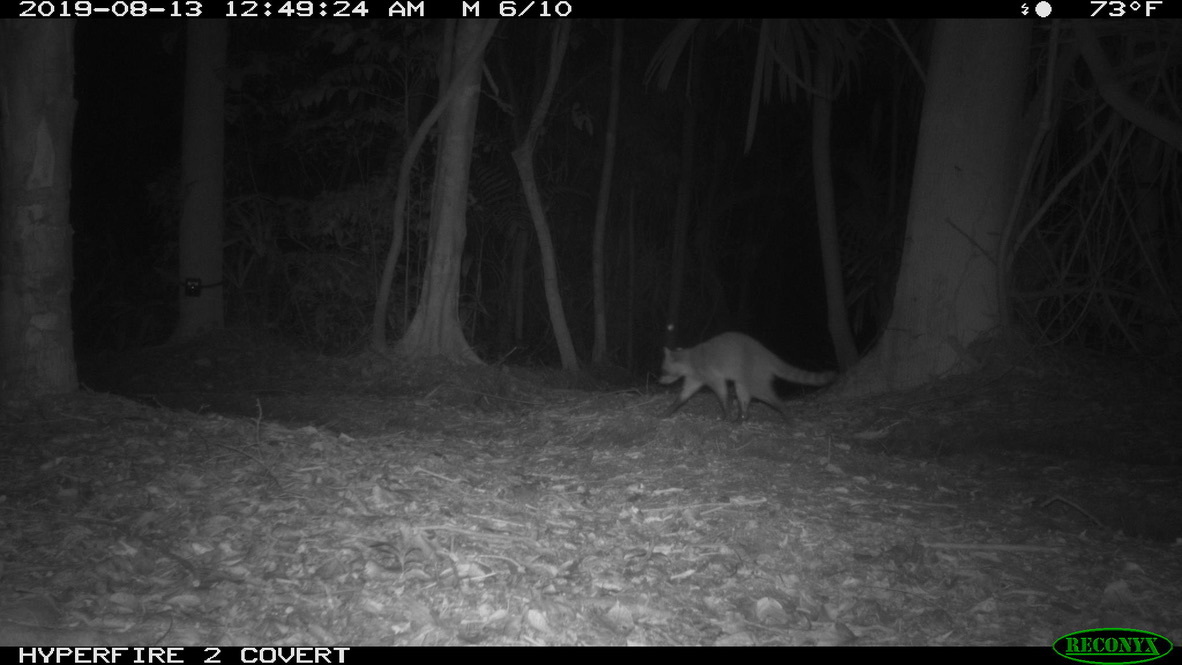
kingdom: Animalia
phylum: Chordata
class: Mammalia
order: Carnivora
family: Procyonidae
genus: Procyon
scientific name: Procyon lotor
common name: Raccoon
